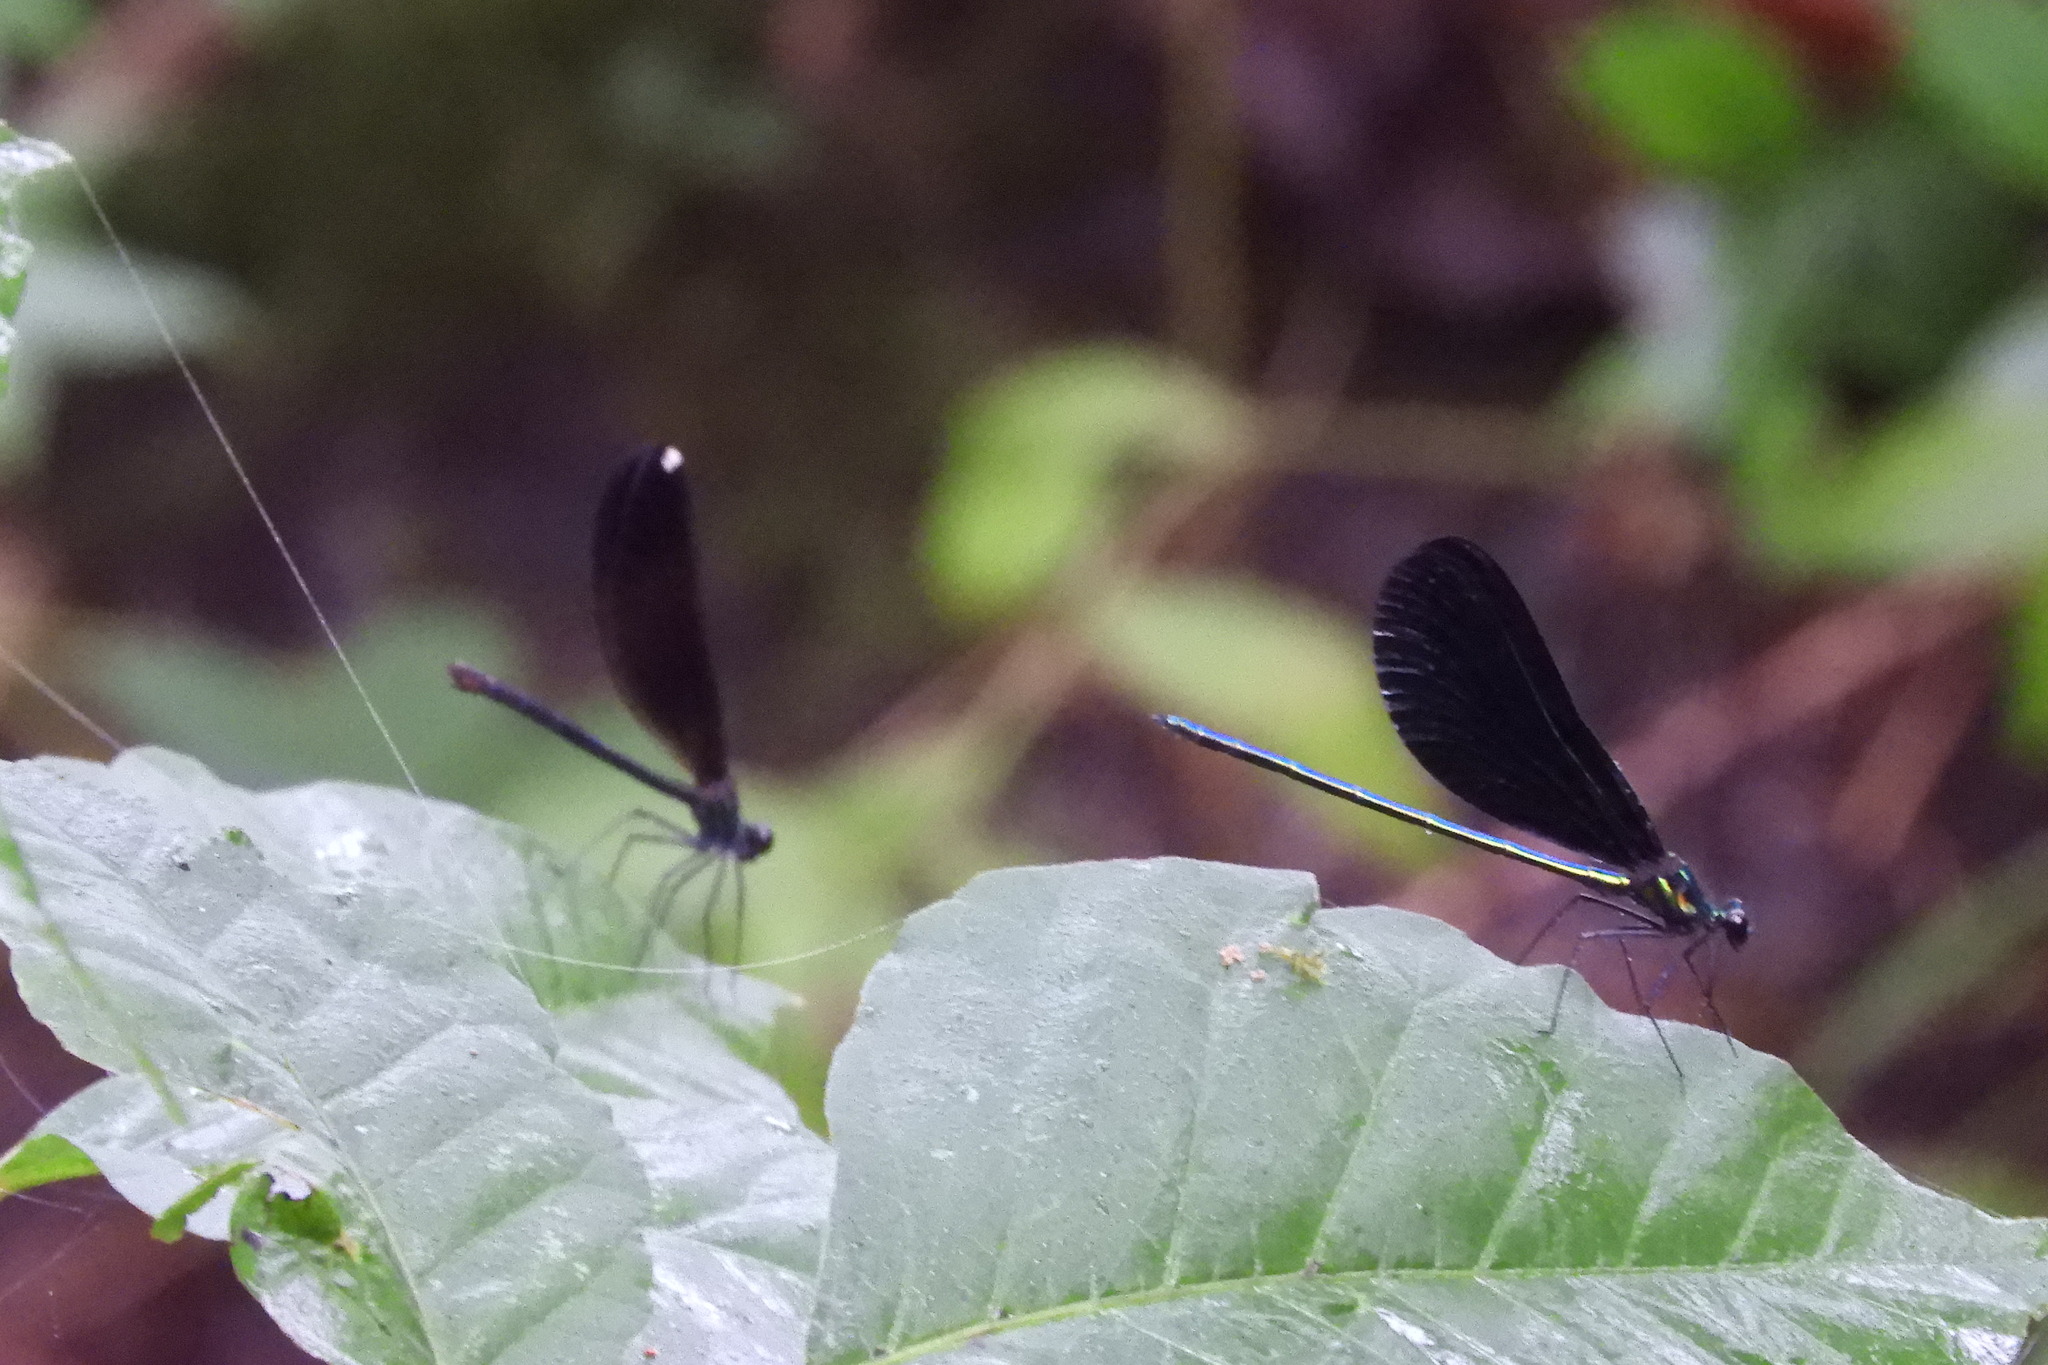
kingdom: Animalia
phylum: Arthropoda
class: Insecta
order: Odonata
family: Calopterygidae
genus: Calopteryx
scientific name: Calopteryx maculata
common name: Ebony jewelwing
